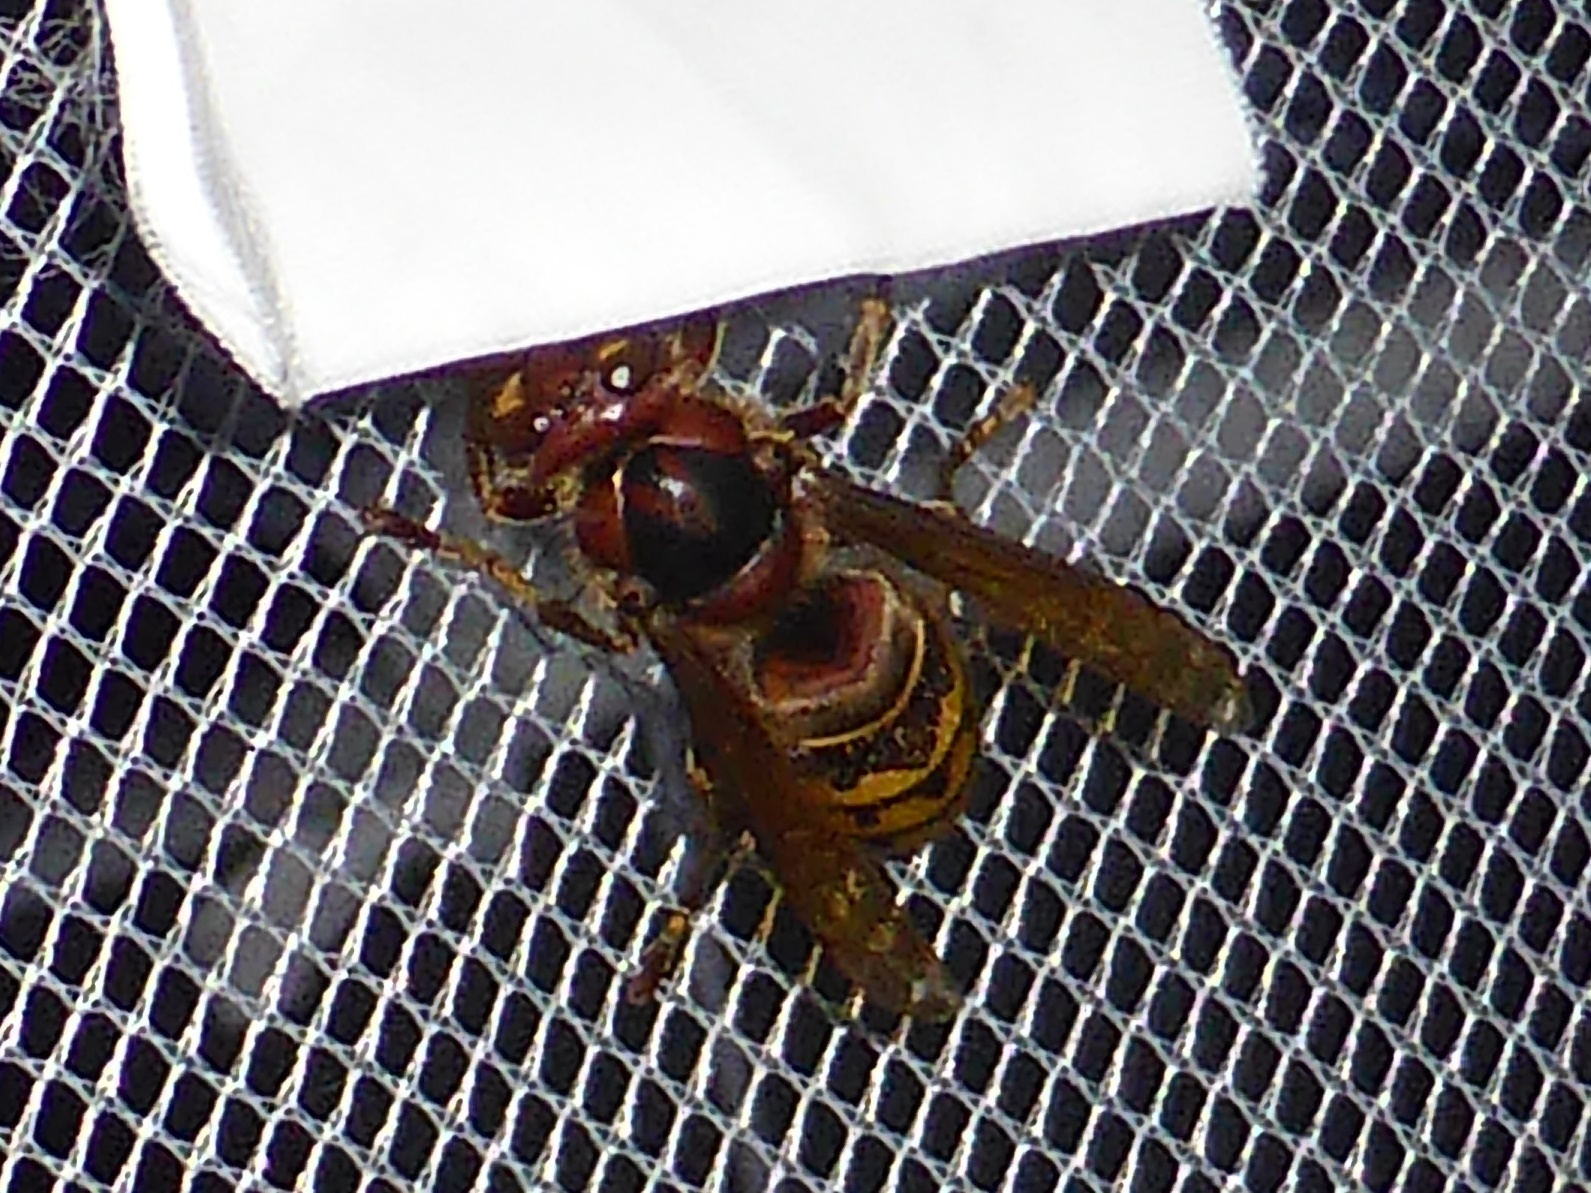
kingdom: Animalia
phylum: Arthropoda
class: Insecta
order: Hymenoptera
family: Vespidae
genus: Vespa
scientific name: Vespa crabro
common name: Hornet
